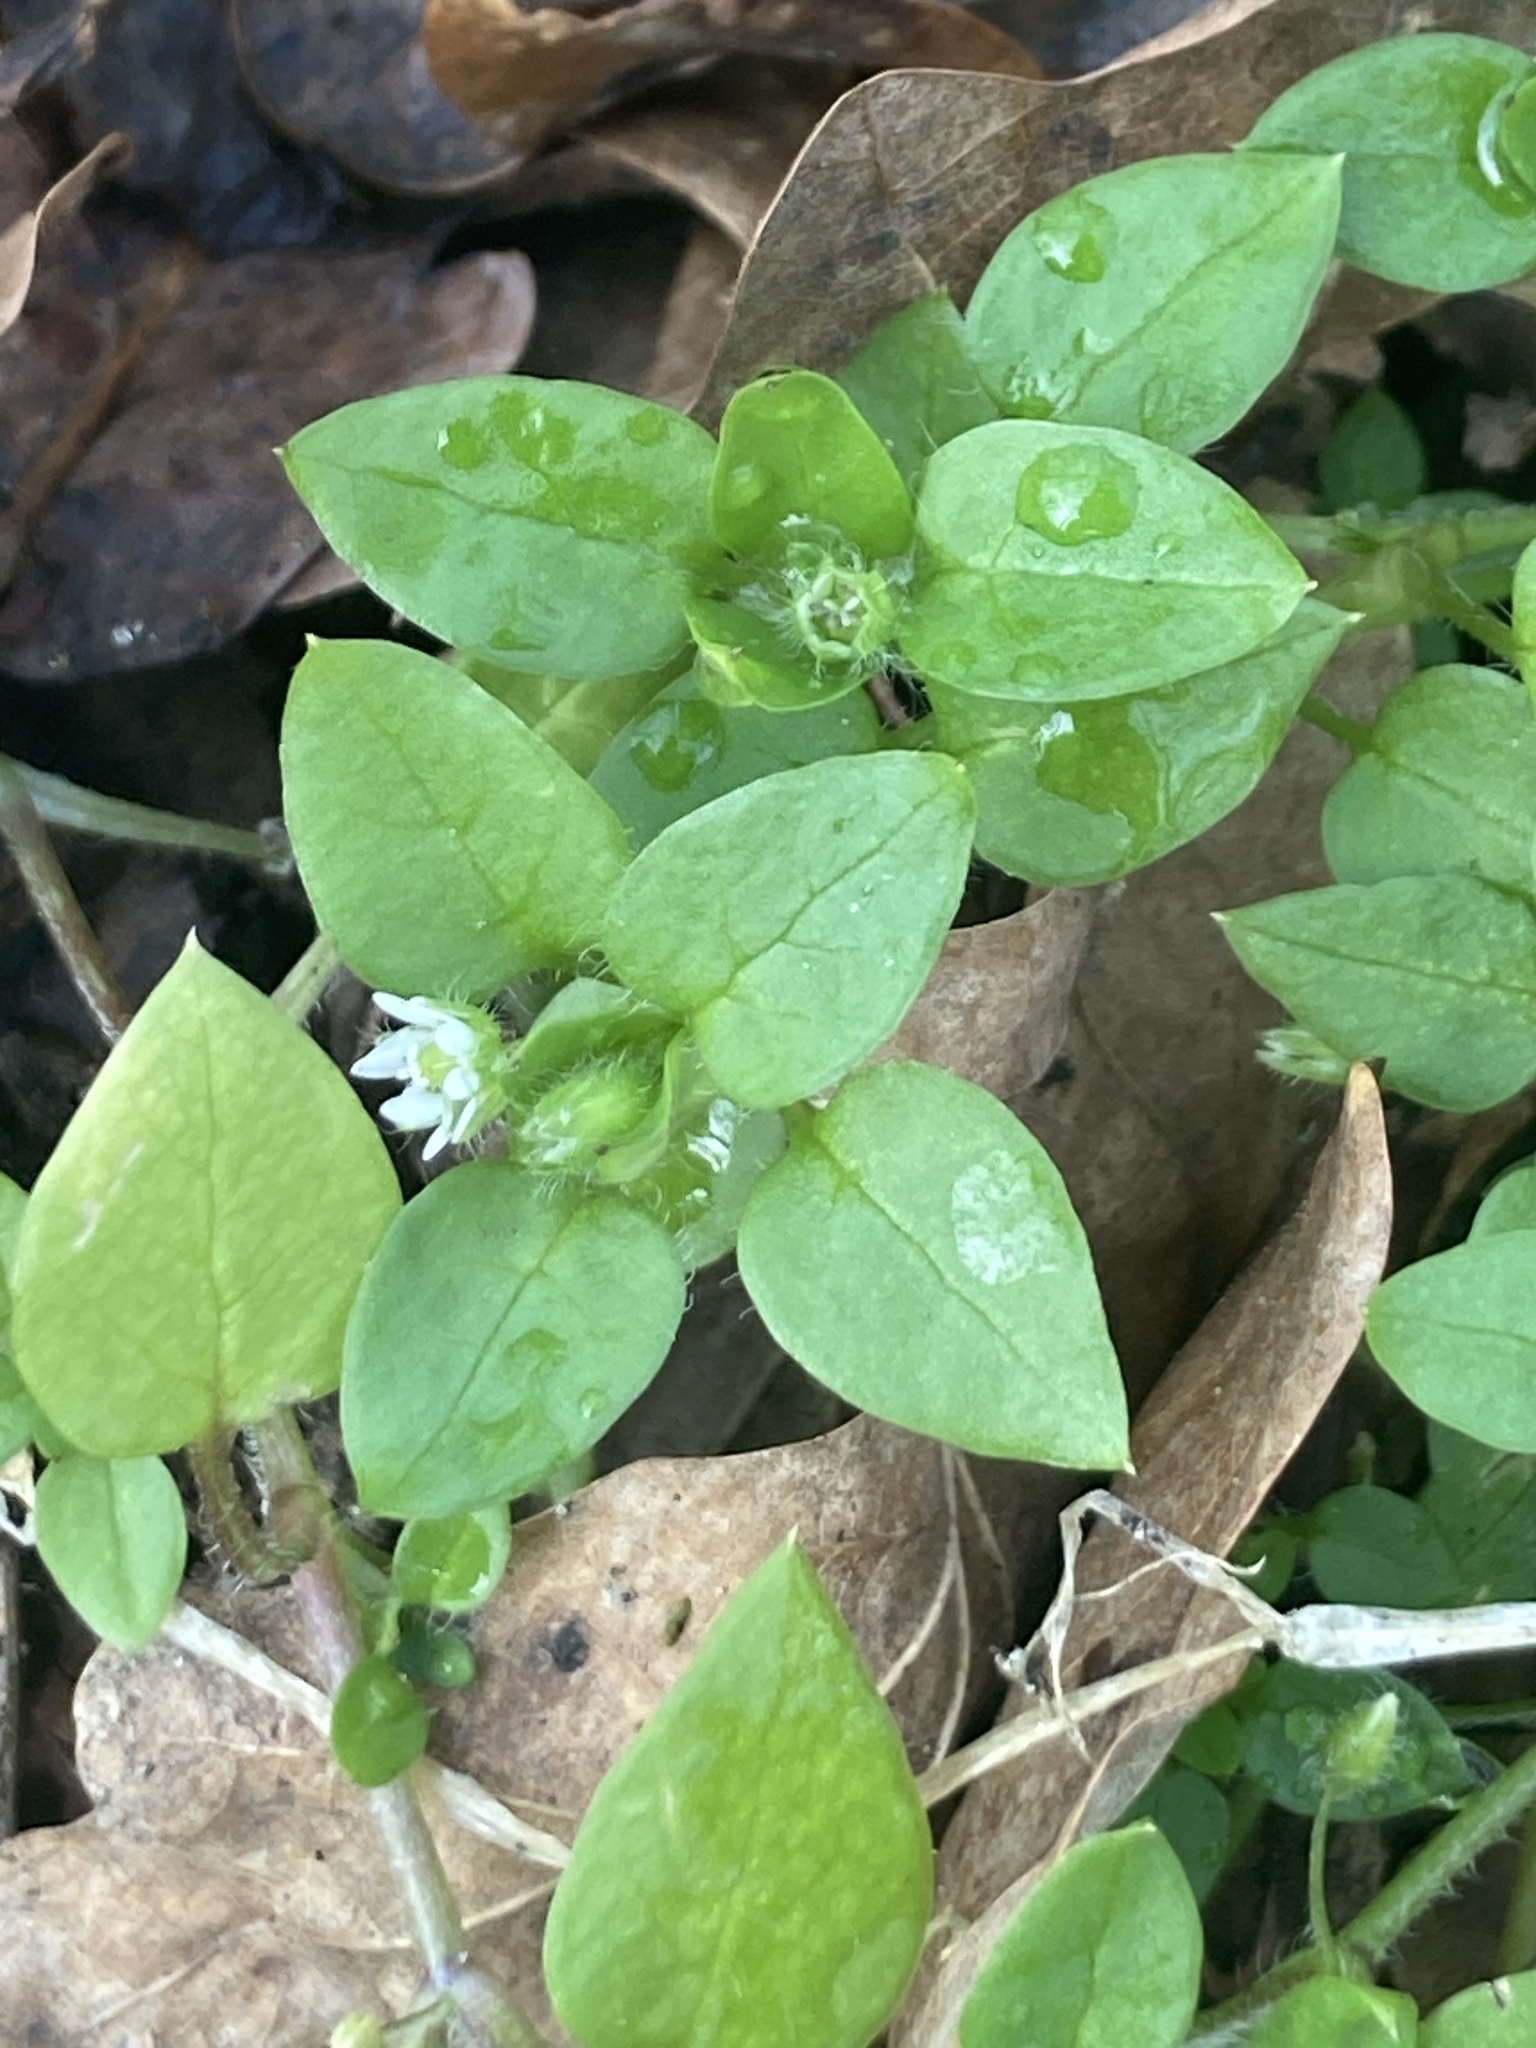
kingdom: Plantae
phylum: Tracheophyta
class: Magnoliopsida
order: Caryophyllales
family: Caryophyllaceae
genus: Stellaria
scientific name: Stellaria media
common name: Common chickweed
